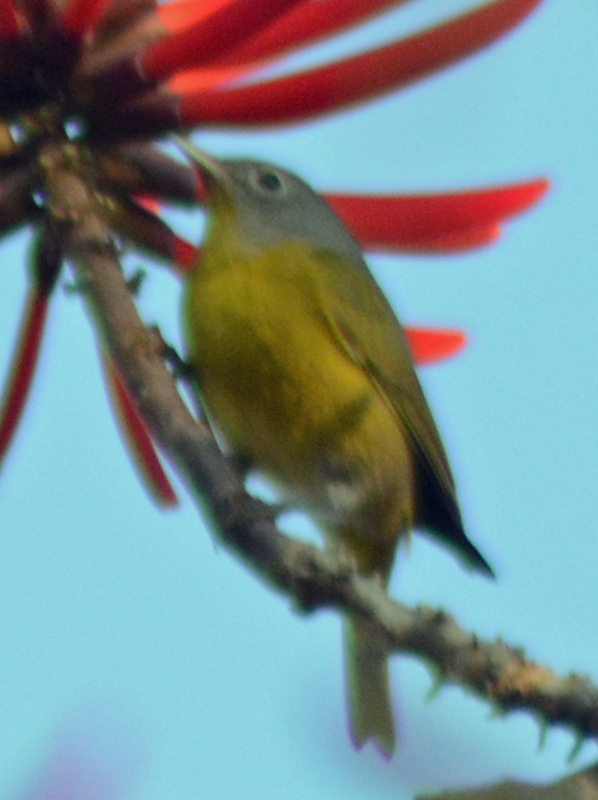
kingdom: Animalia
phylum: Chordata
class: Aves
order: Passeriformes
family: Parulidae
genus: Leiothlypis
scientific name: Leiothlypis ruficapilla
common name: Nashville warbler
